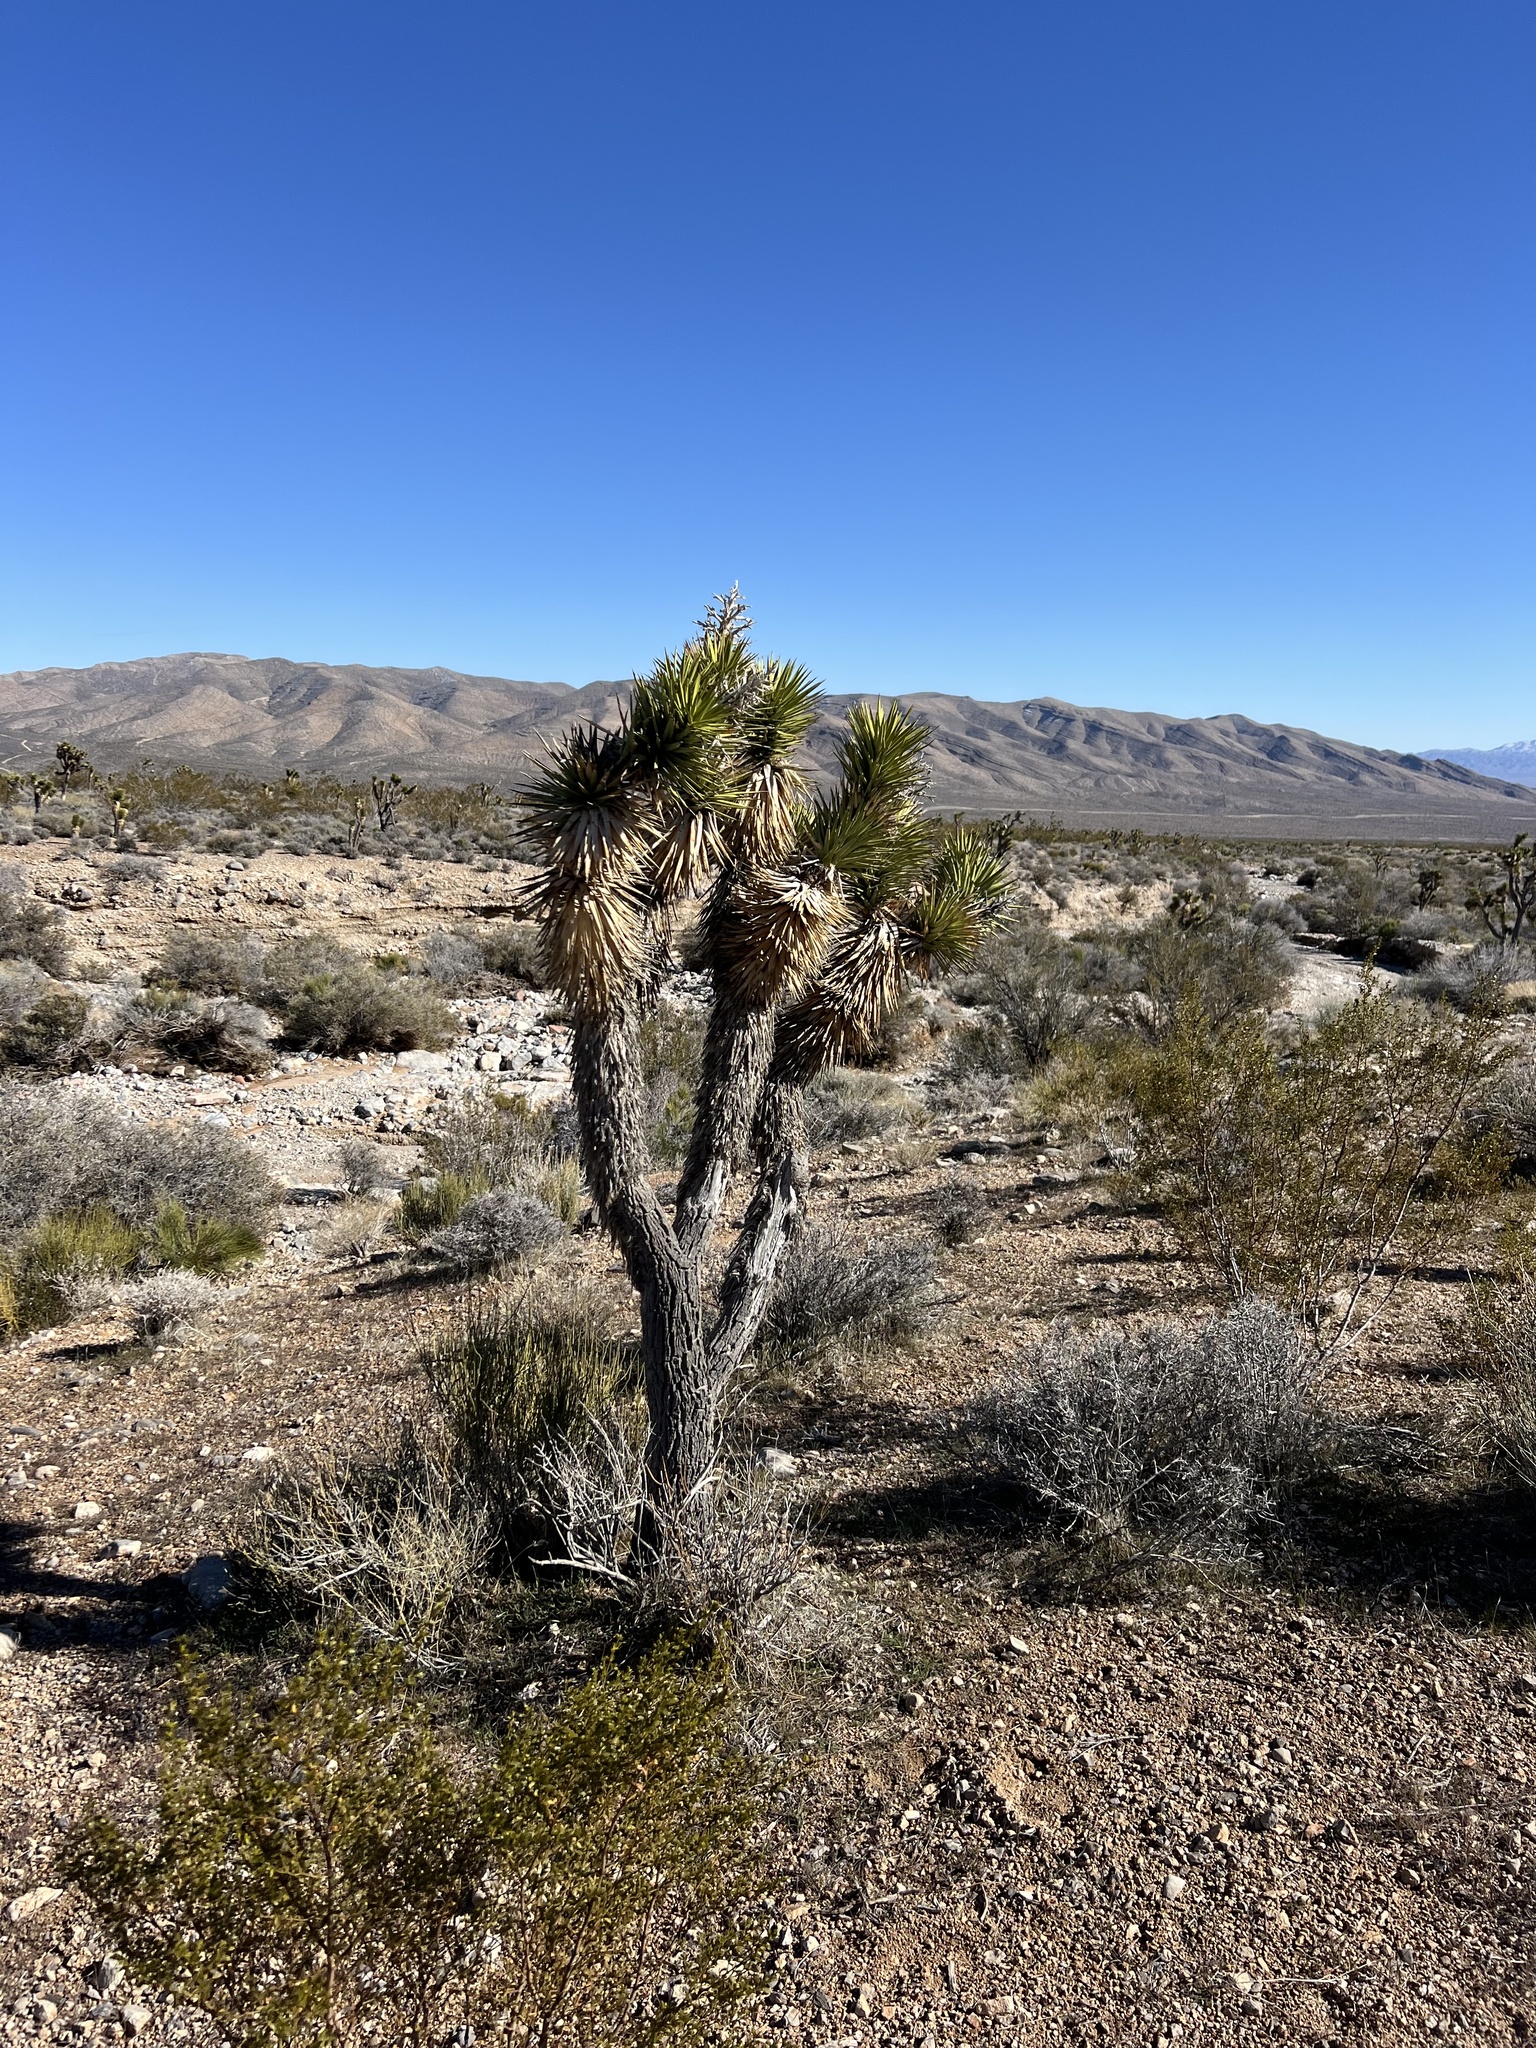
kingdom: Plantae
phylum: Tracheophyta
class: Liliopsida
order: Asparagales
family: Asparagaceae
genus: Yucca
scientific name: Yucca brevifolia
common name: Joshua tree
